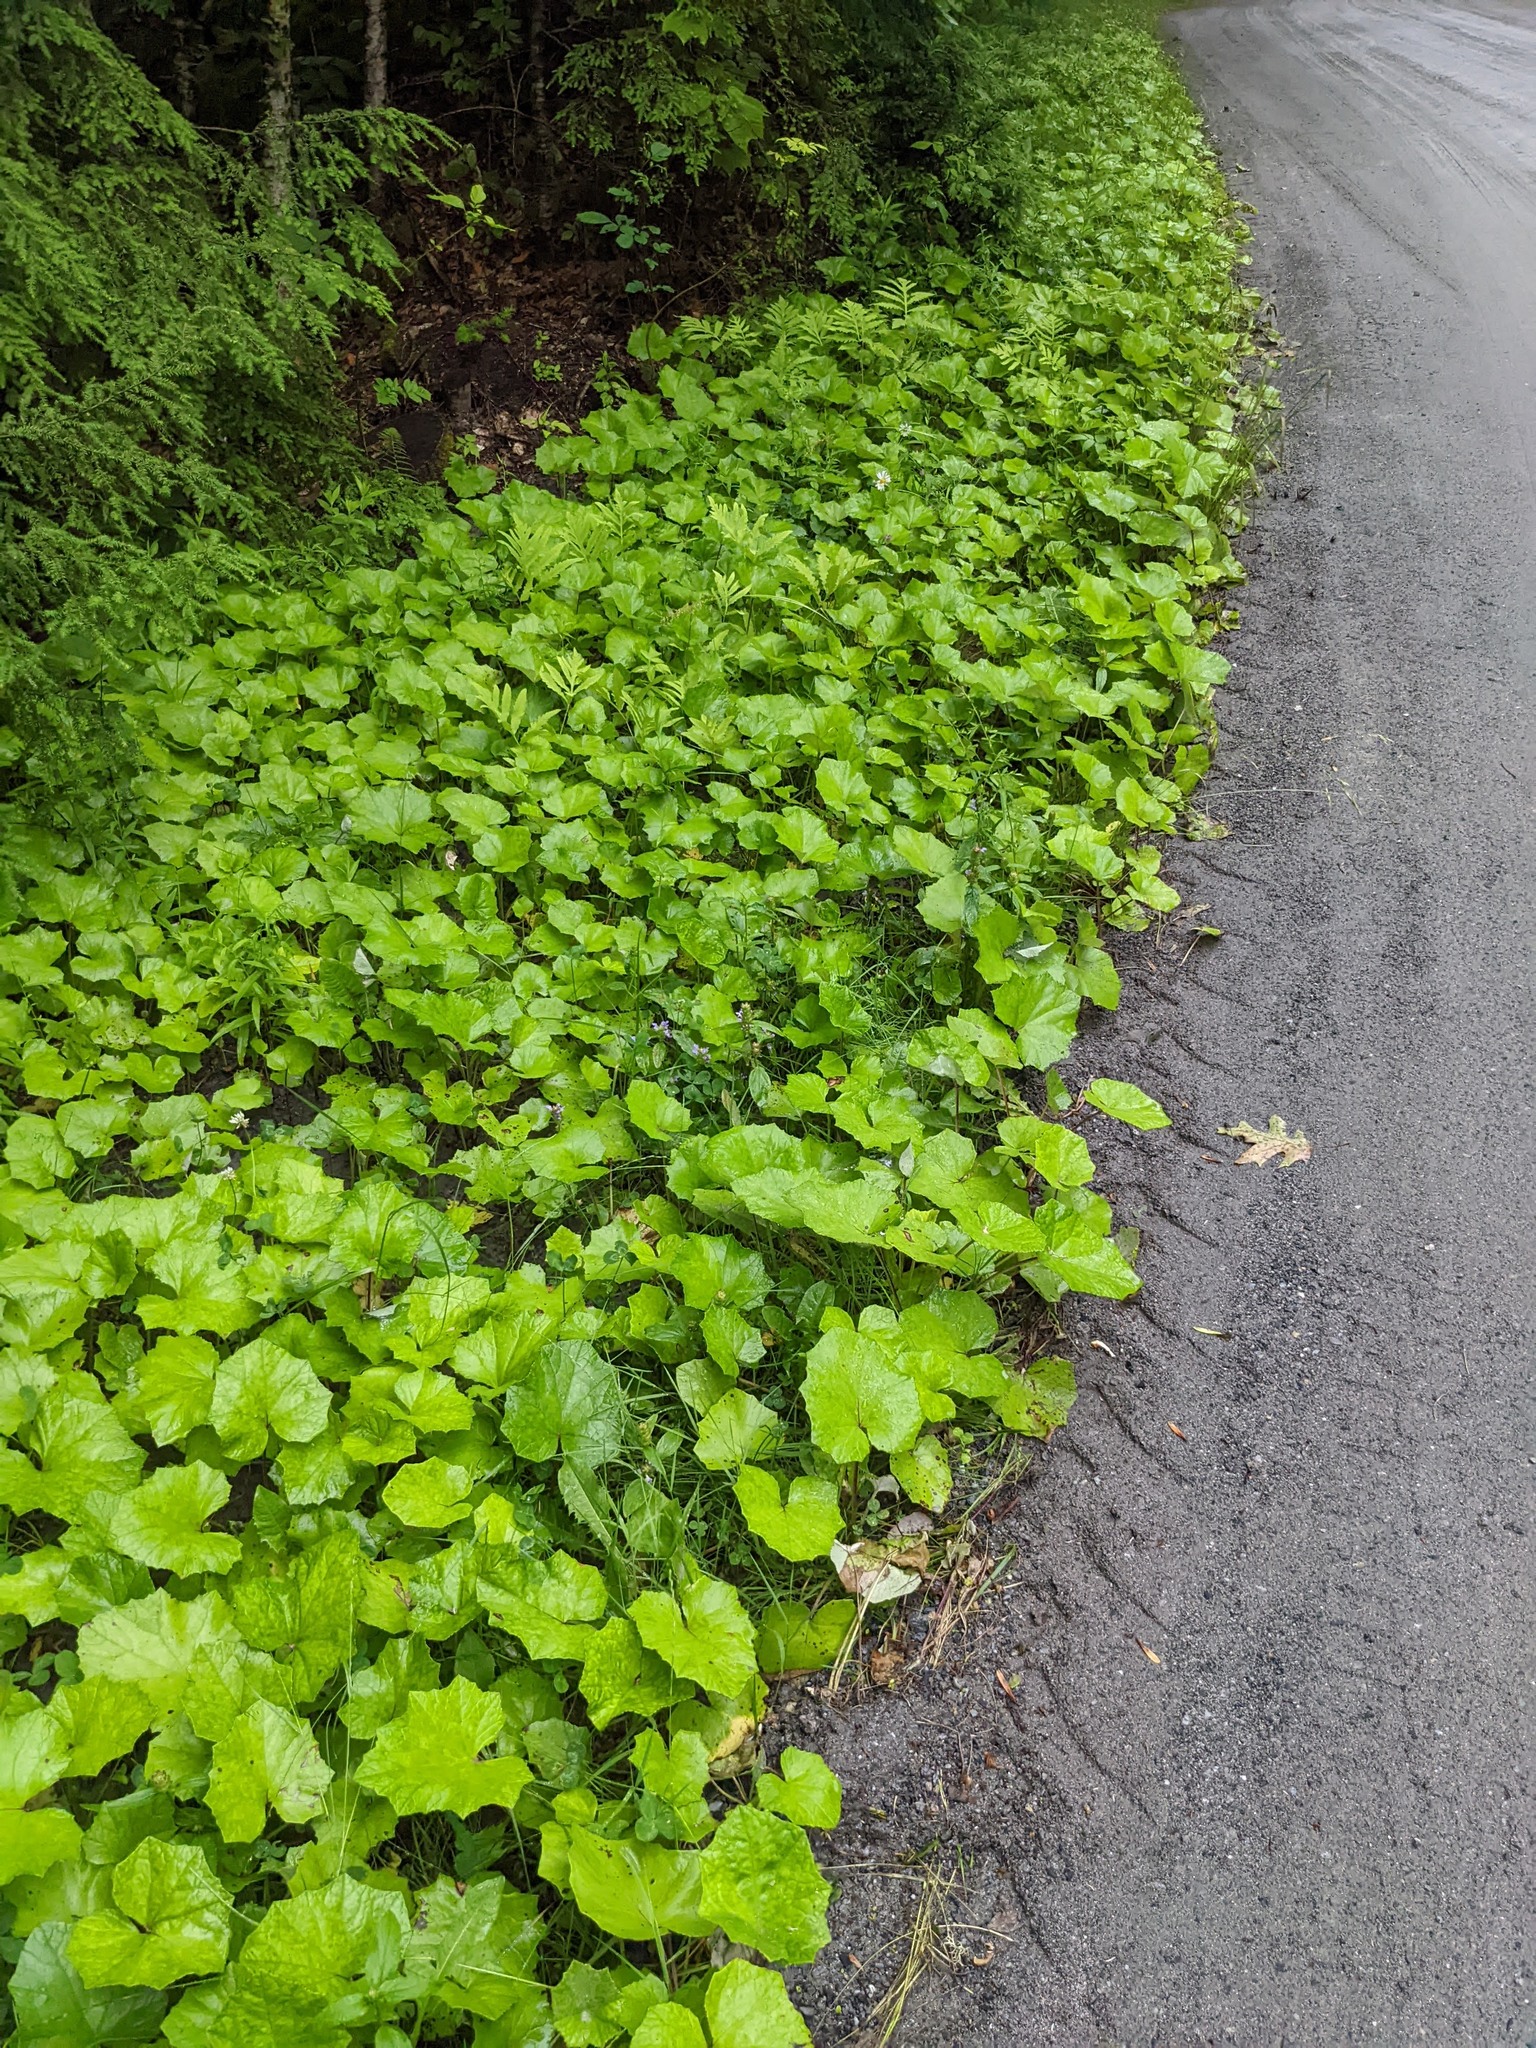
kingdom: Plantae
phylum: Tracheophyta
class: Magnoliopsida
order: Asterales
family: Asteraceae
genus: Tussilago
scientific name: Tussilago farfara
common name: Coltsfoot
